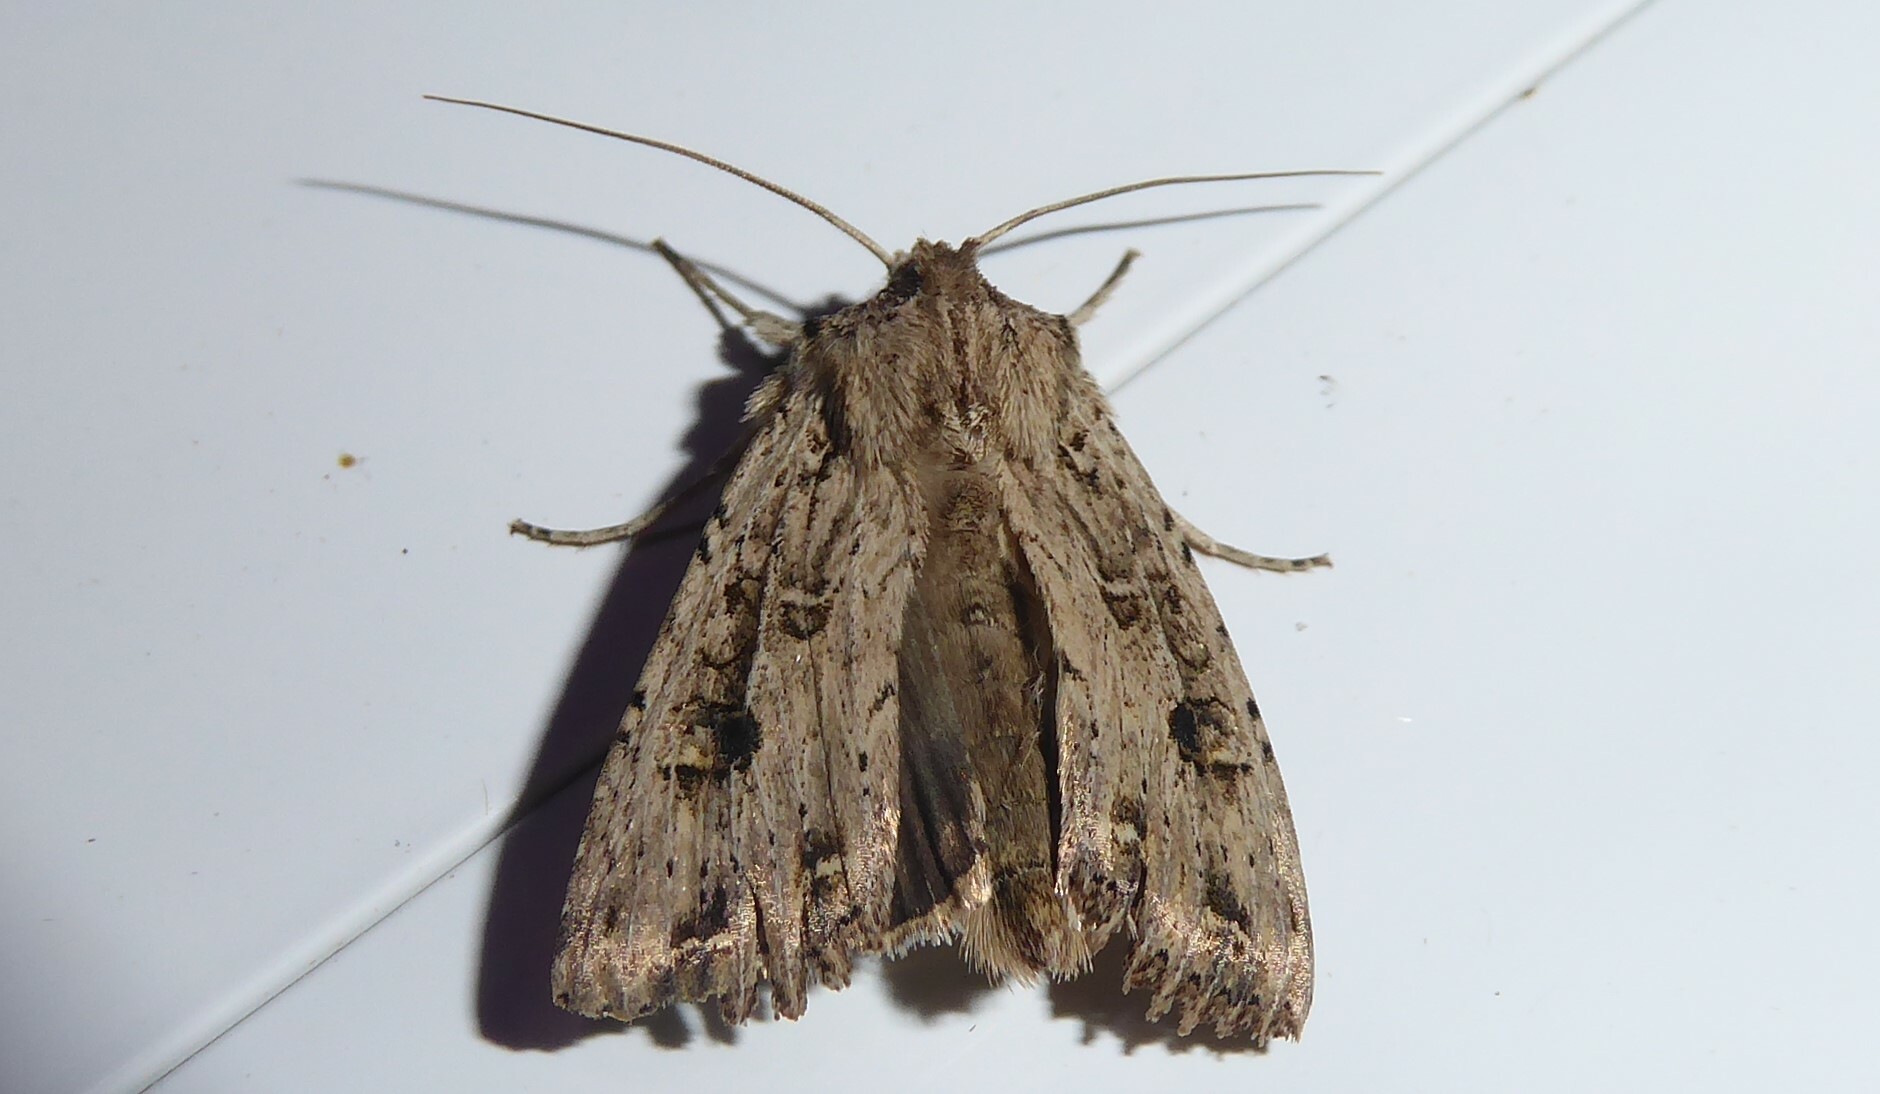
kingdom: Animalia
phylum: Arthropoda
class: Insecta
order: Lepidoptera
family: Noctuidae
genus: Ichneutica
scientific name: Ichneutica lignana
